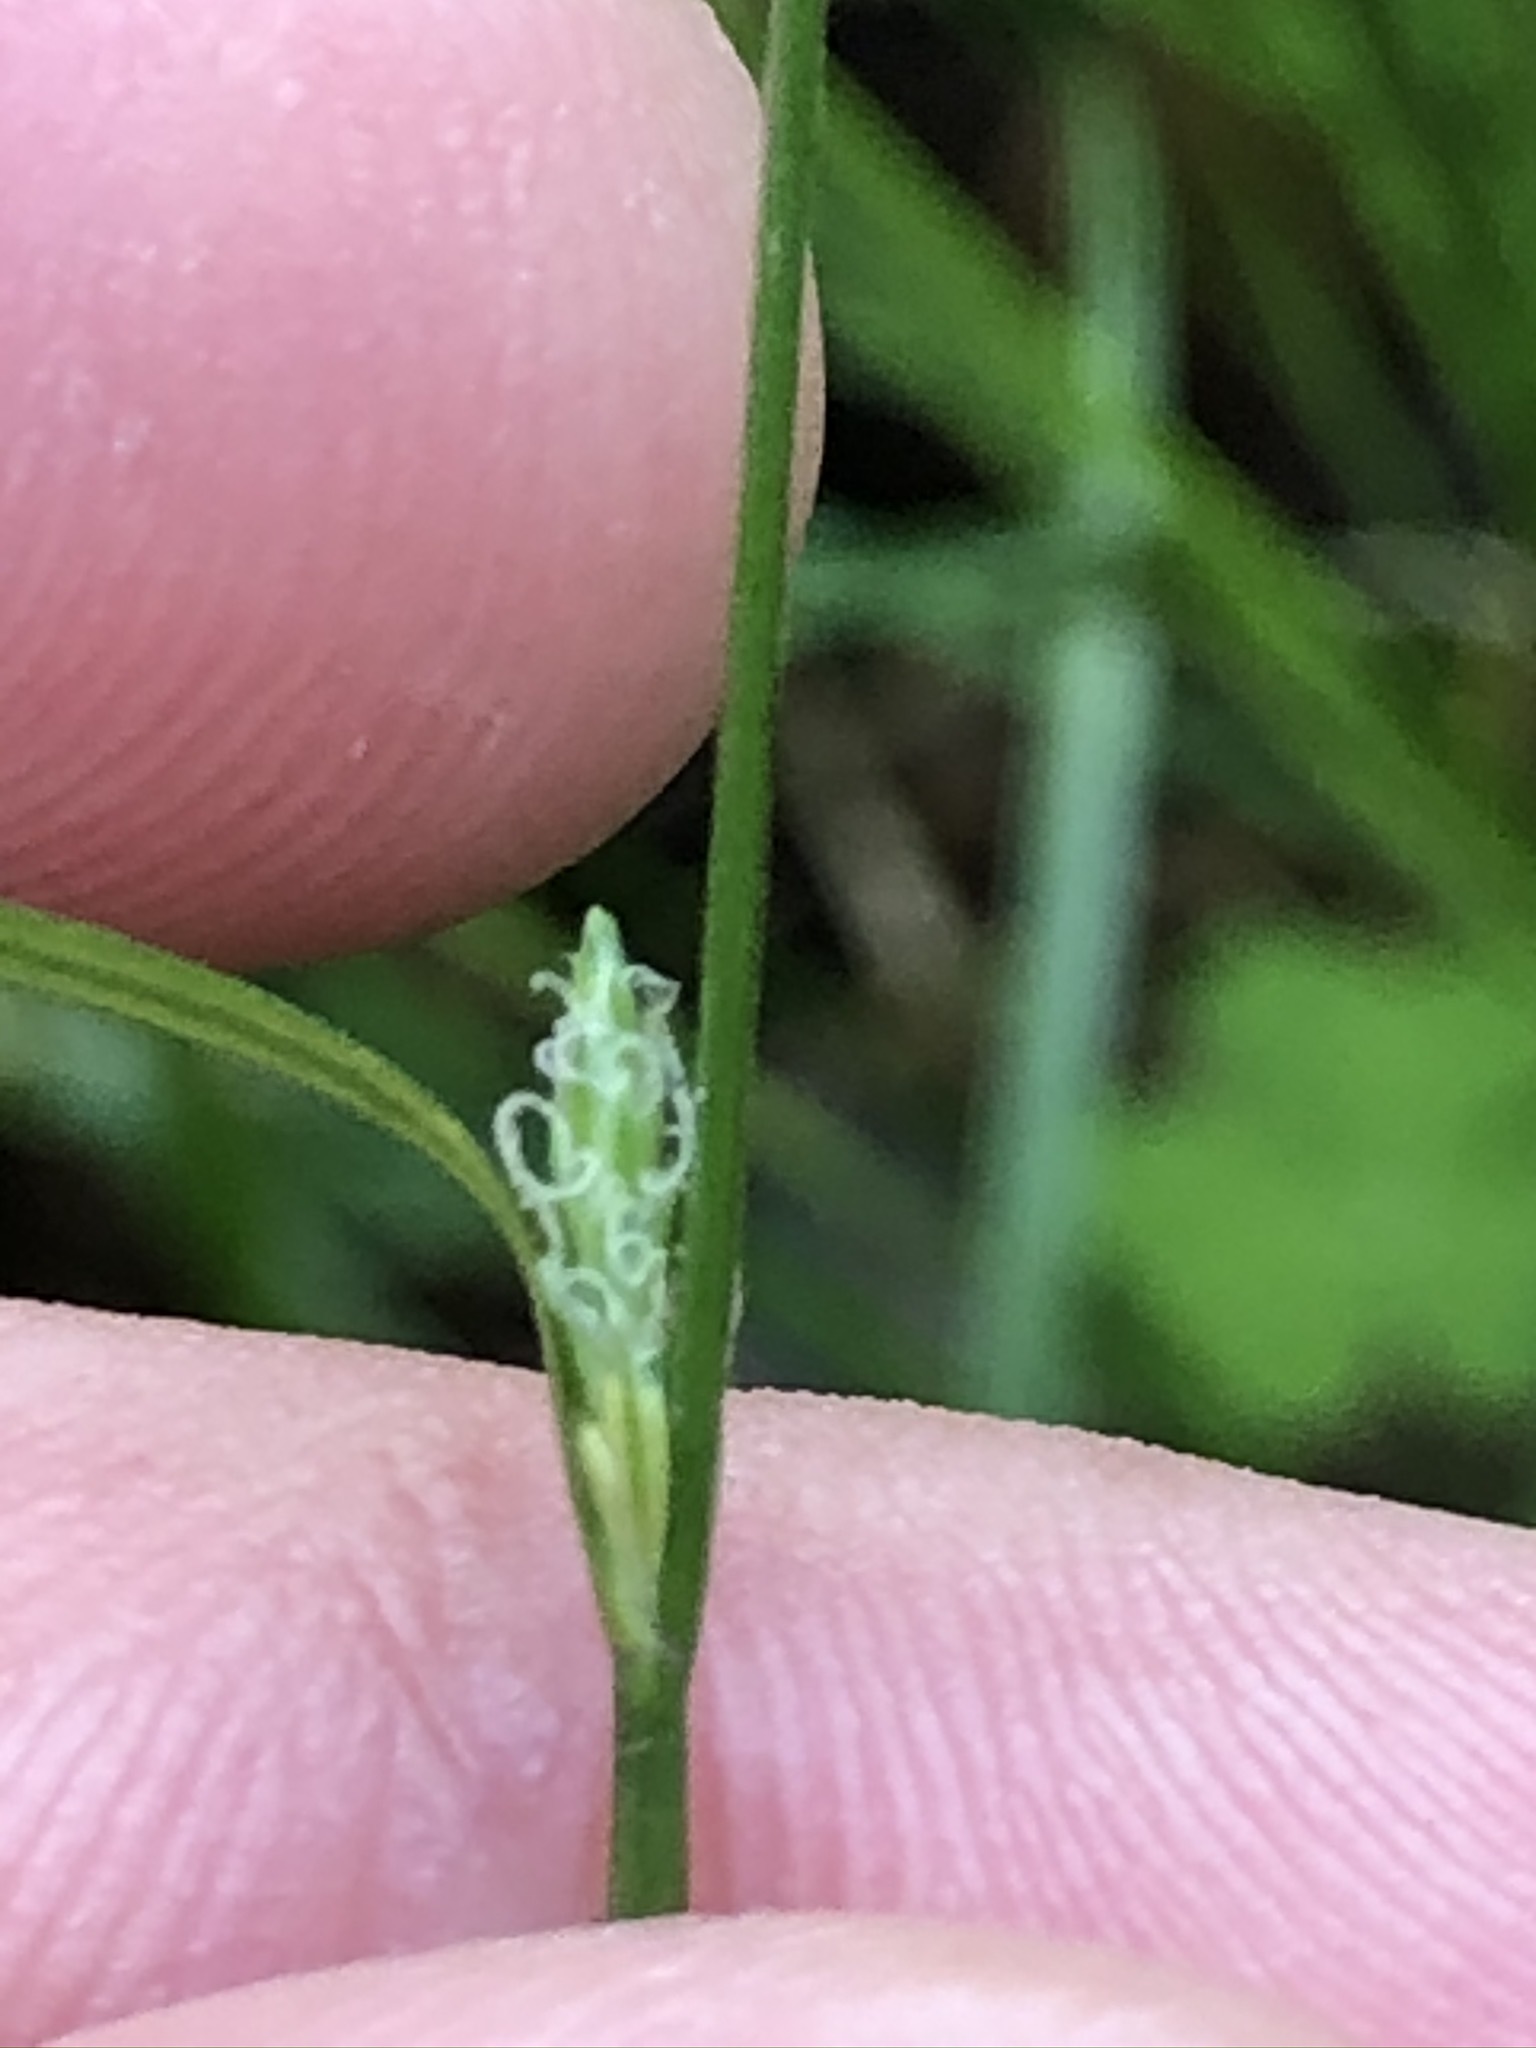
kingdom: Plantae
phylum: Tracheophyta
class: Liliopsida
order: Poales
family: Cyperaceae
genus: Carex
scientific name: Carex remota
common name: Remote sedge
